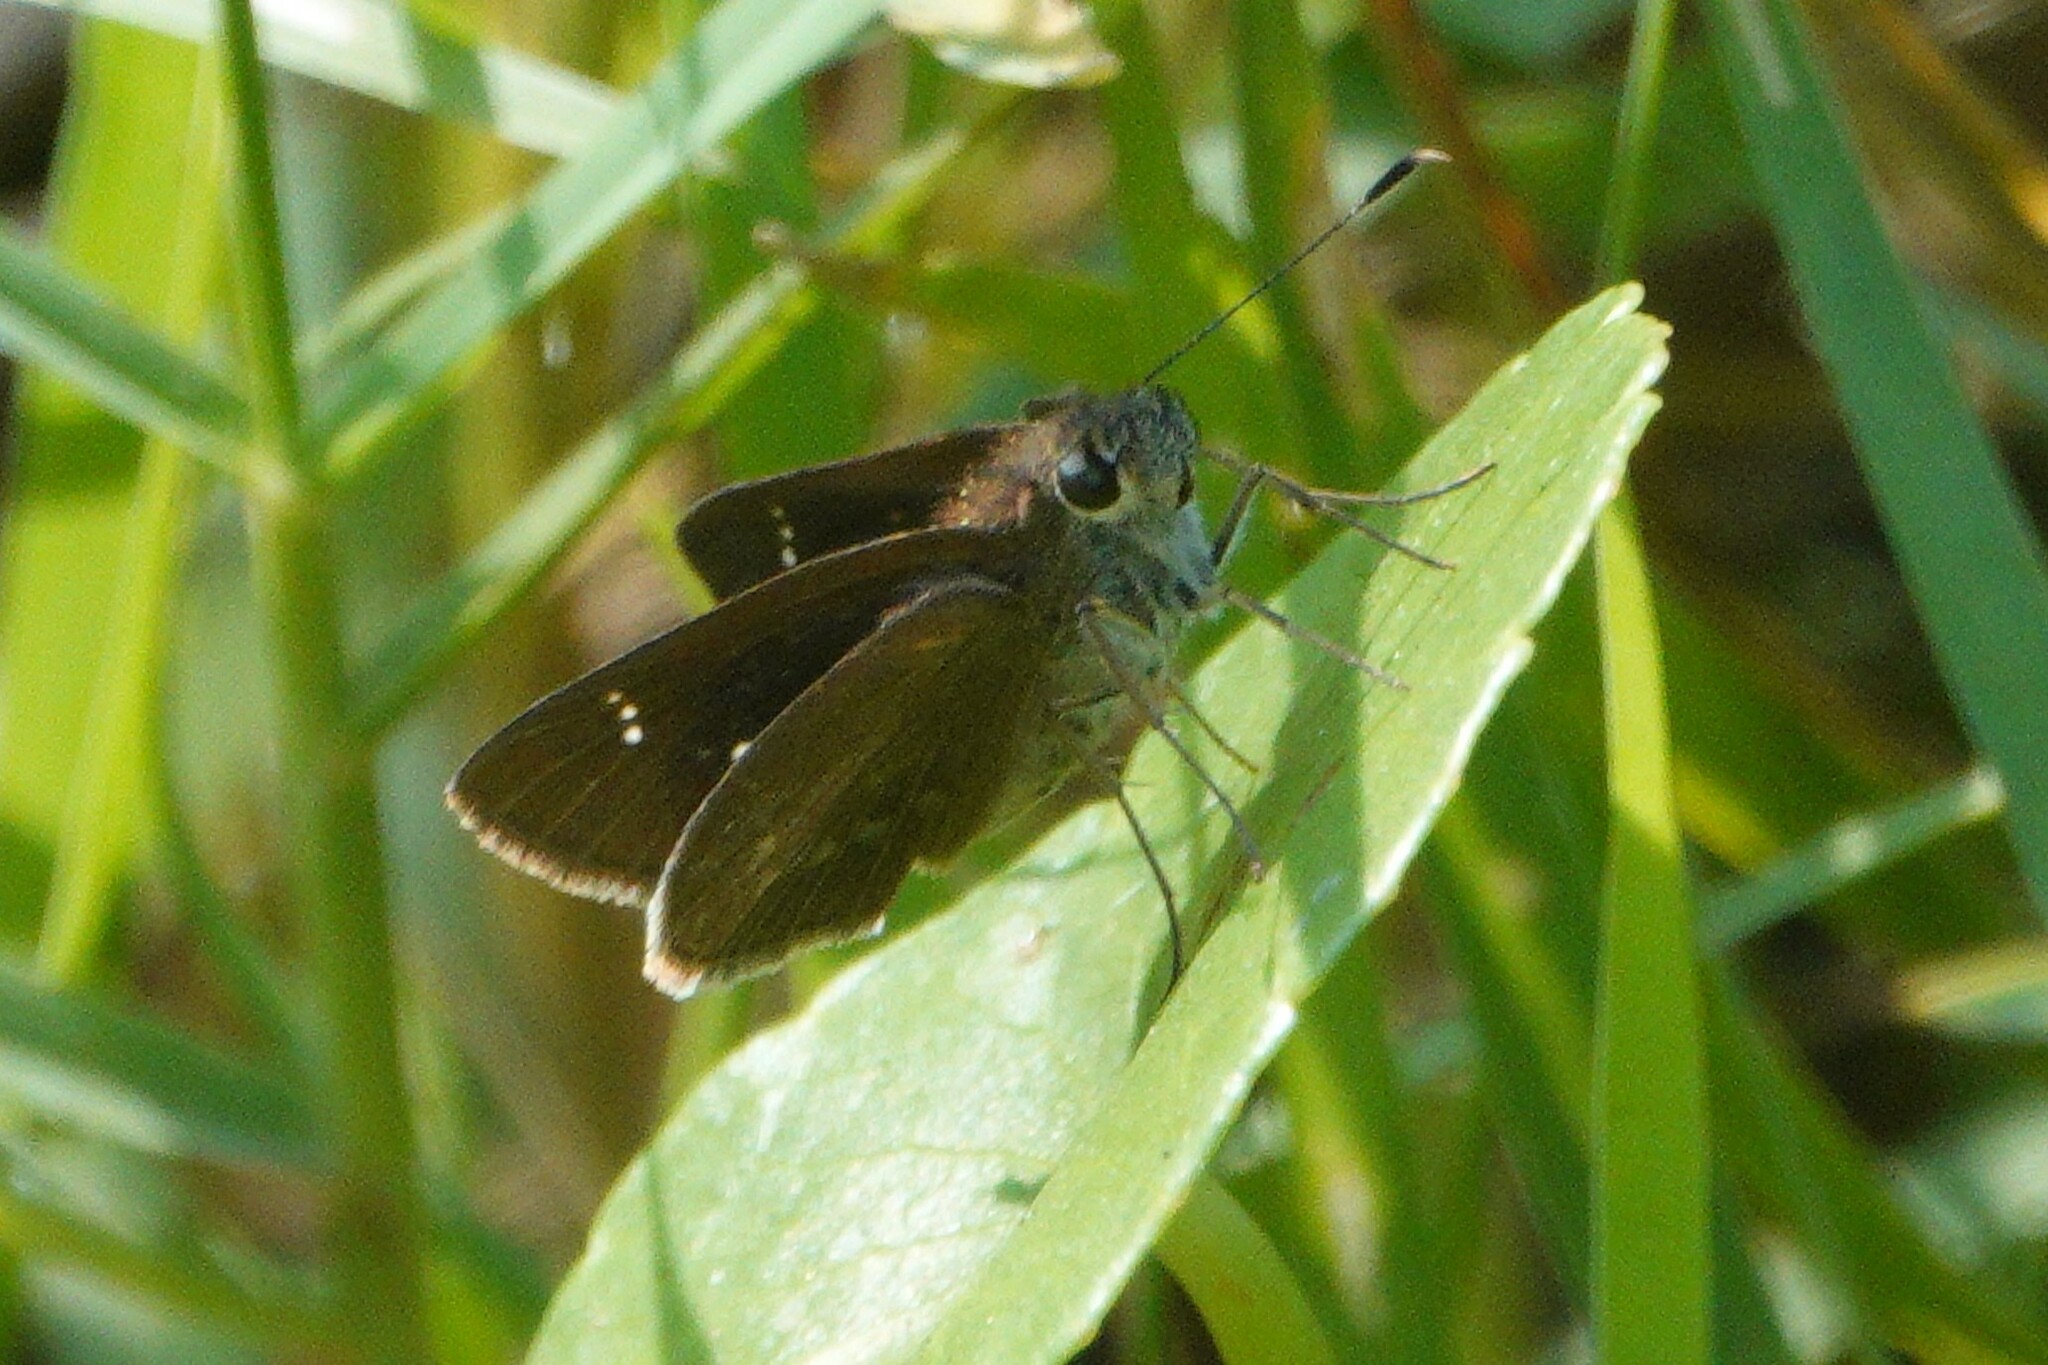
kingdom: Animalia
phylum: Arthropoda
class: Insecta
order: Lepidoptera
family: Hesperiidae
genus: Cymaenes
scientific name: Cymaenes tripunctus
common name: Dingy dotted skipper
